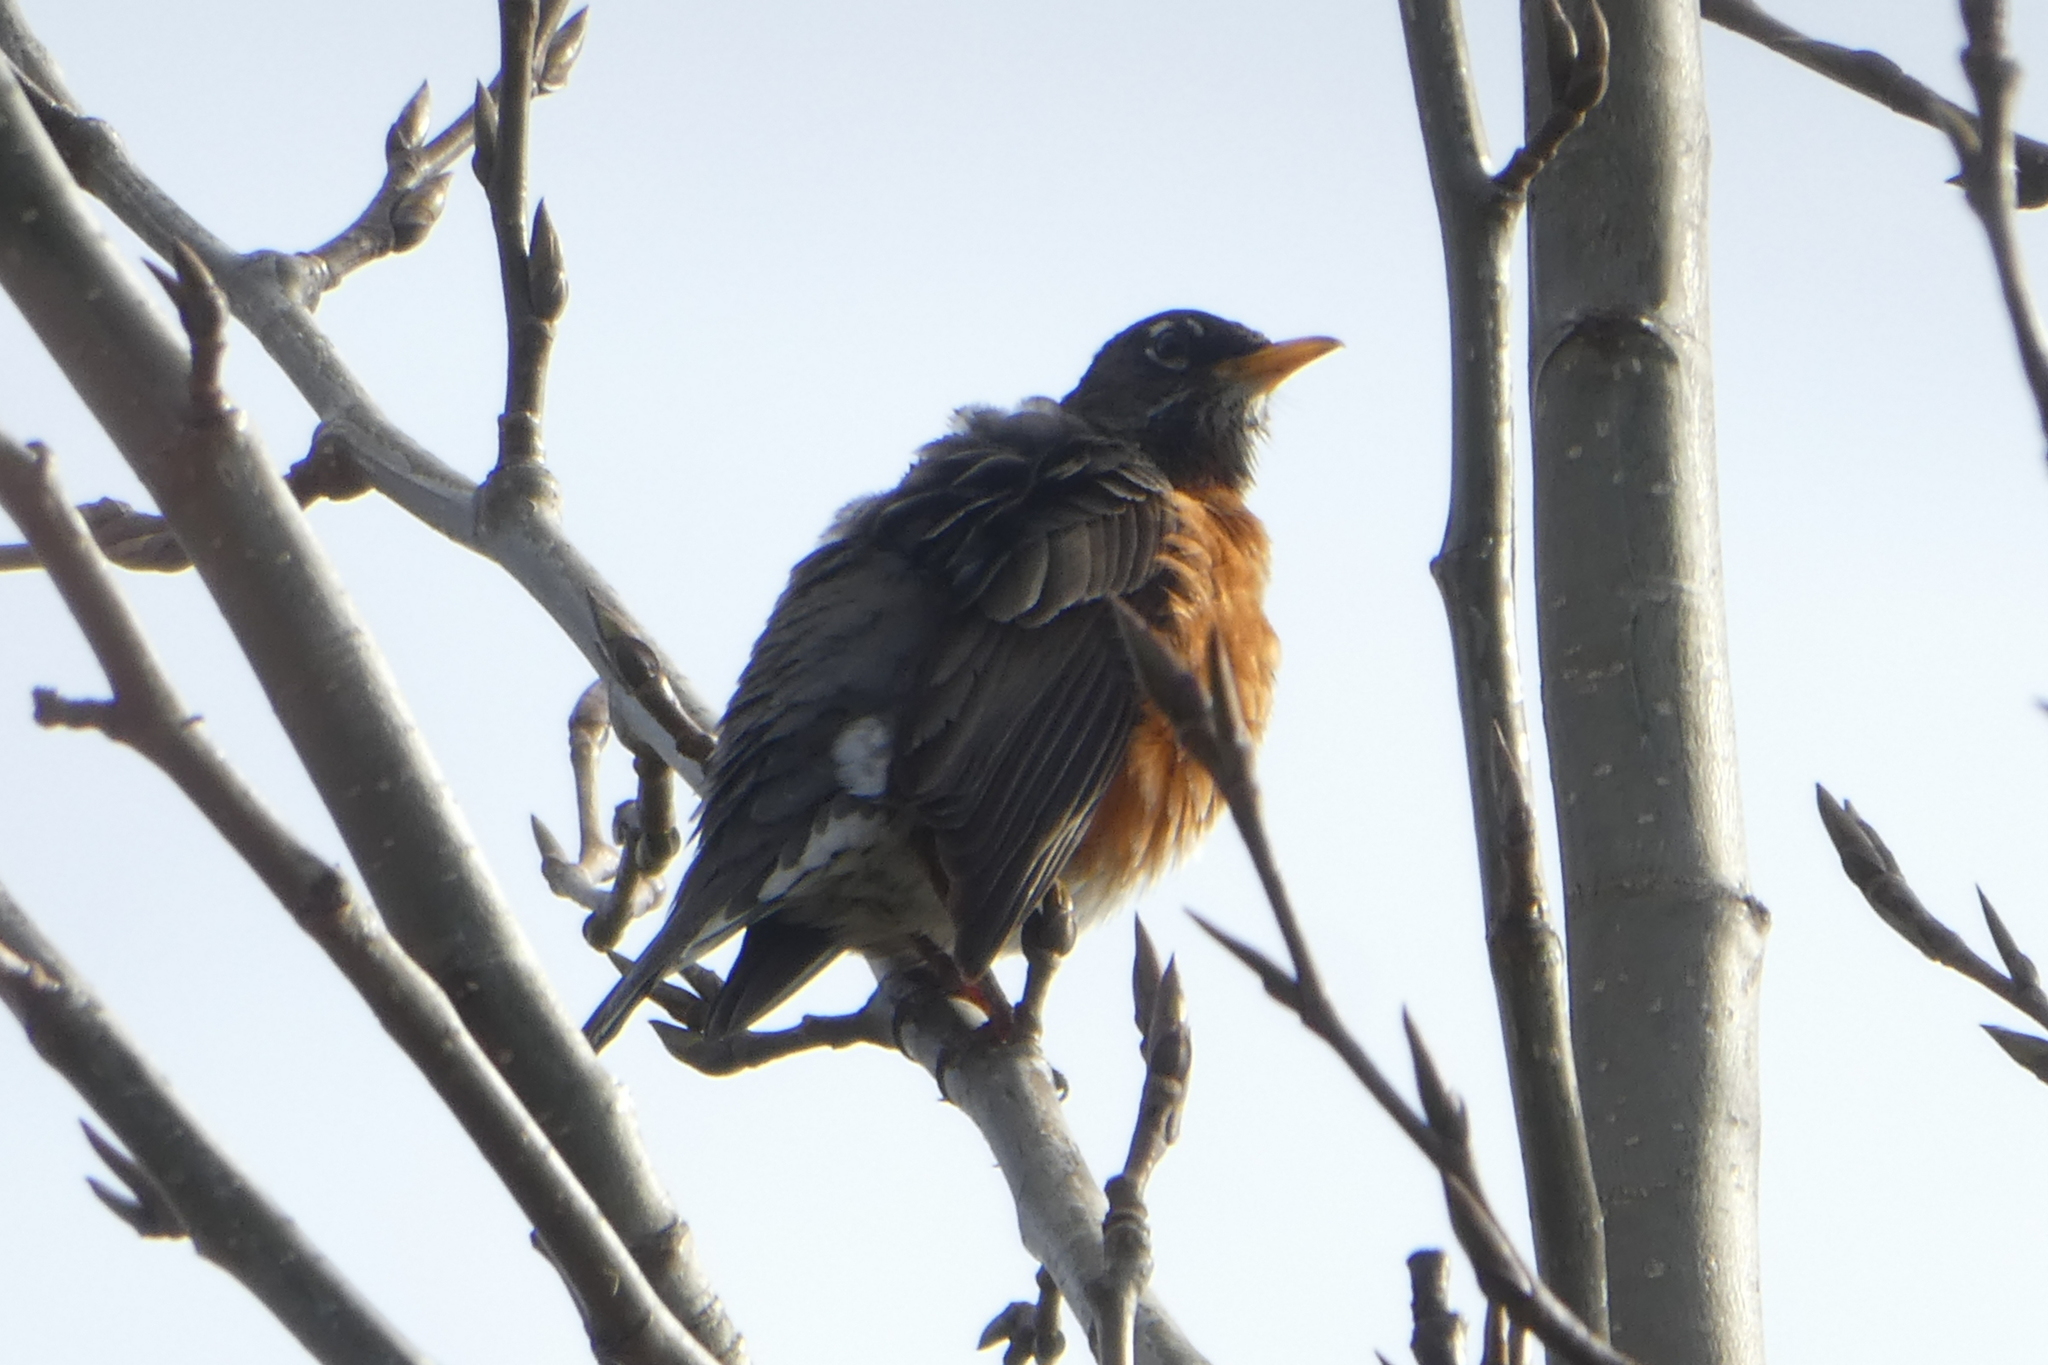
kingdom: Animalia
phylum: Chordata
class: Aves
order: Passeriformes
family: Turdidae
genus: Turdus
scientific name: Turdus migratorius
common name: American robin
